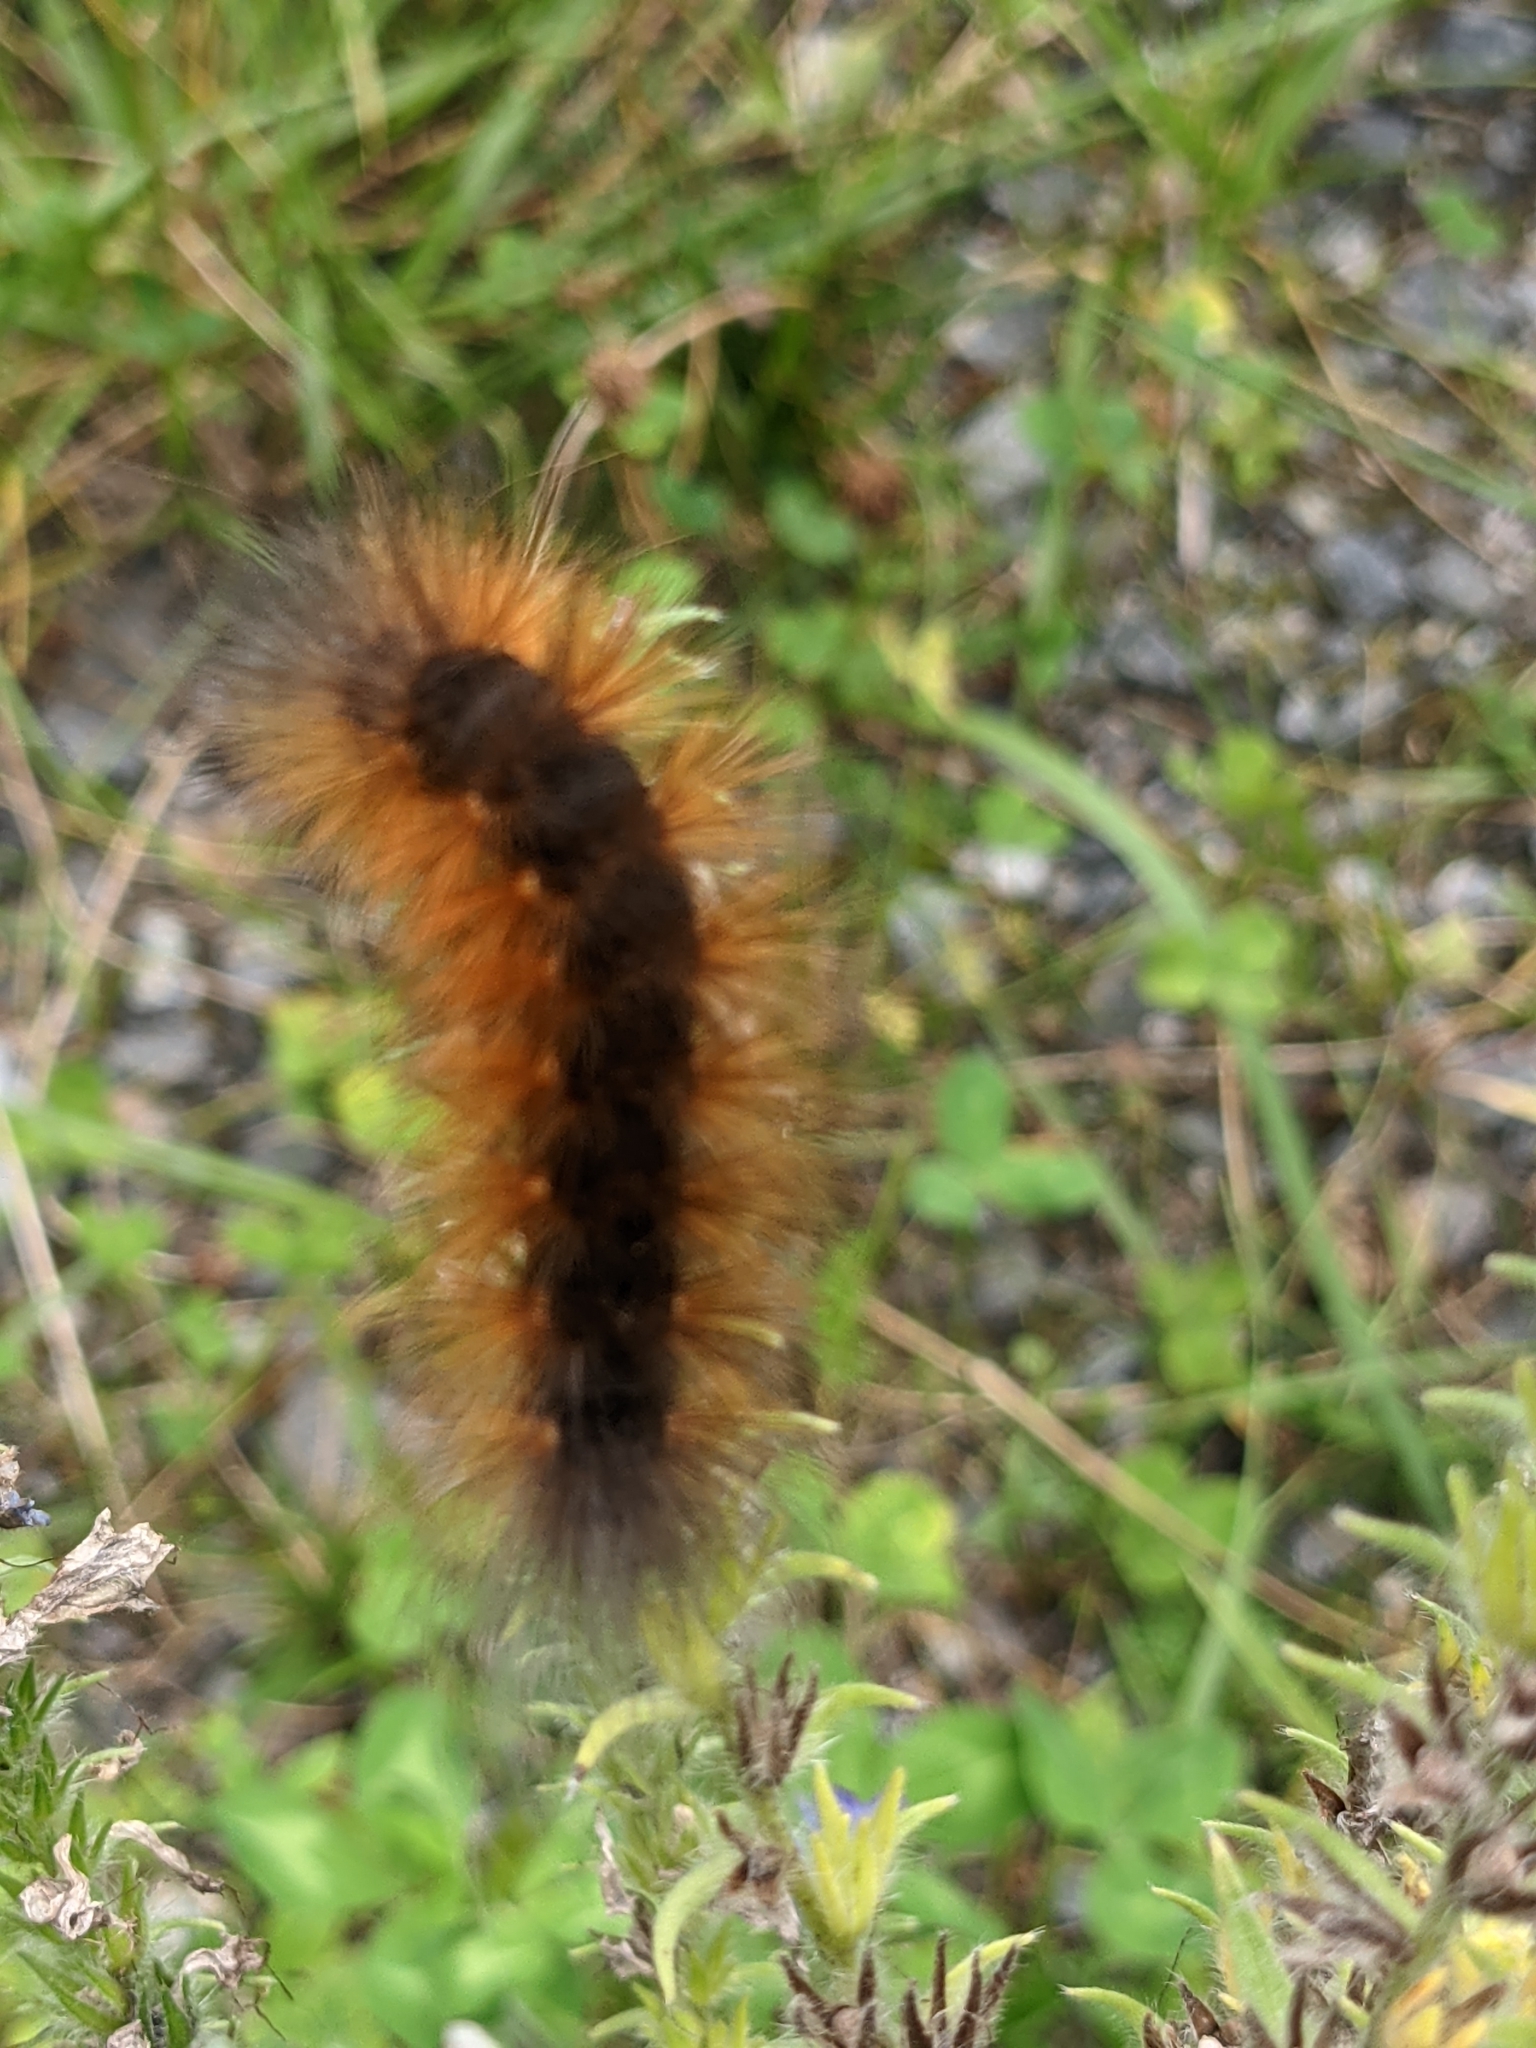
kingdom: Animalia
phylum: Arthropoda
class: Insecta
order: Lepidoptera
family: Erebidae
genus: Estigmene
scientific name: Estigmene acrea
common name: Salt marsh moth
